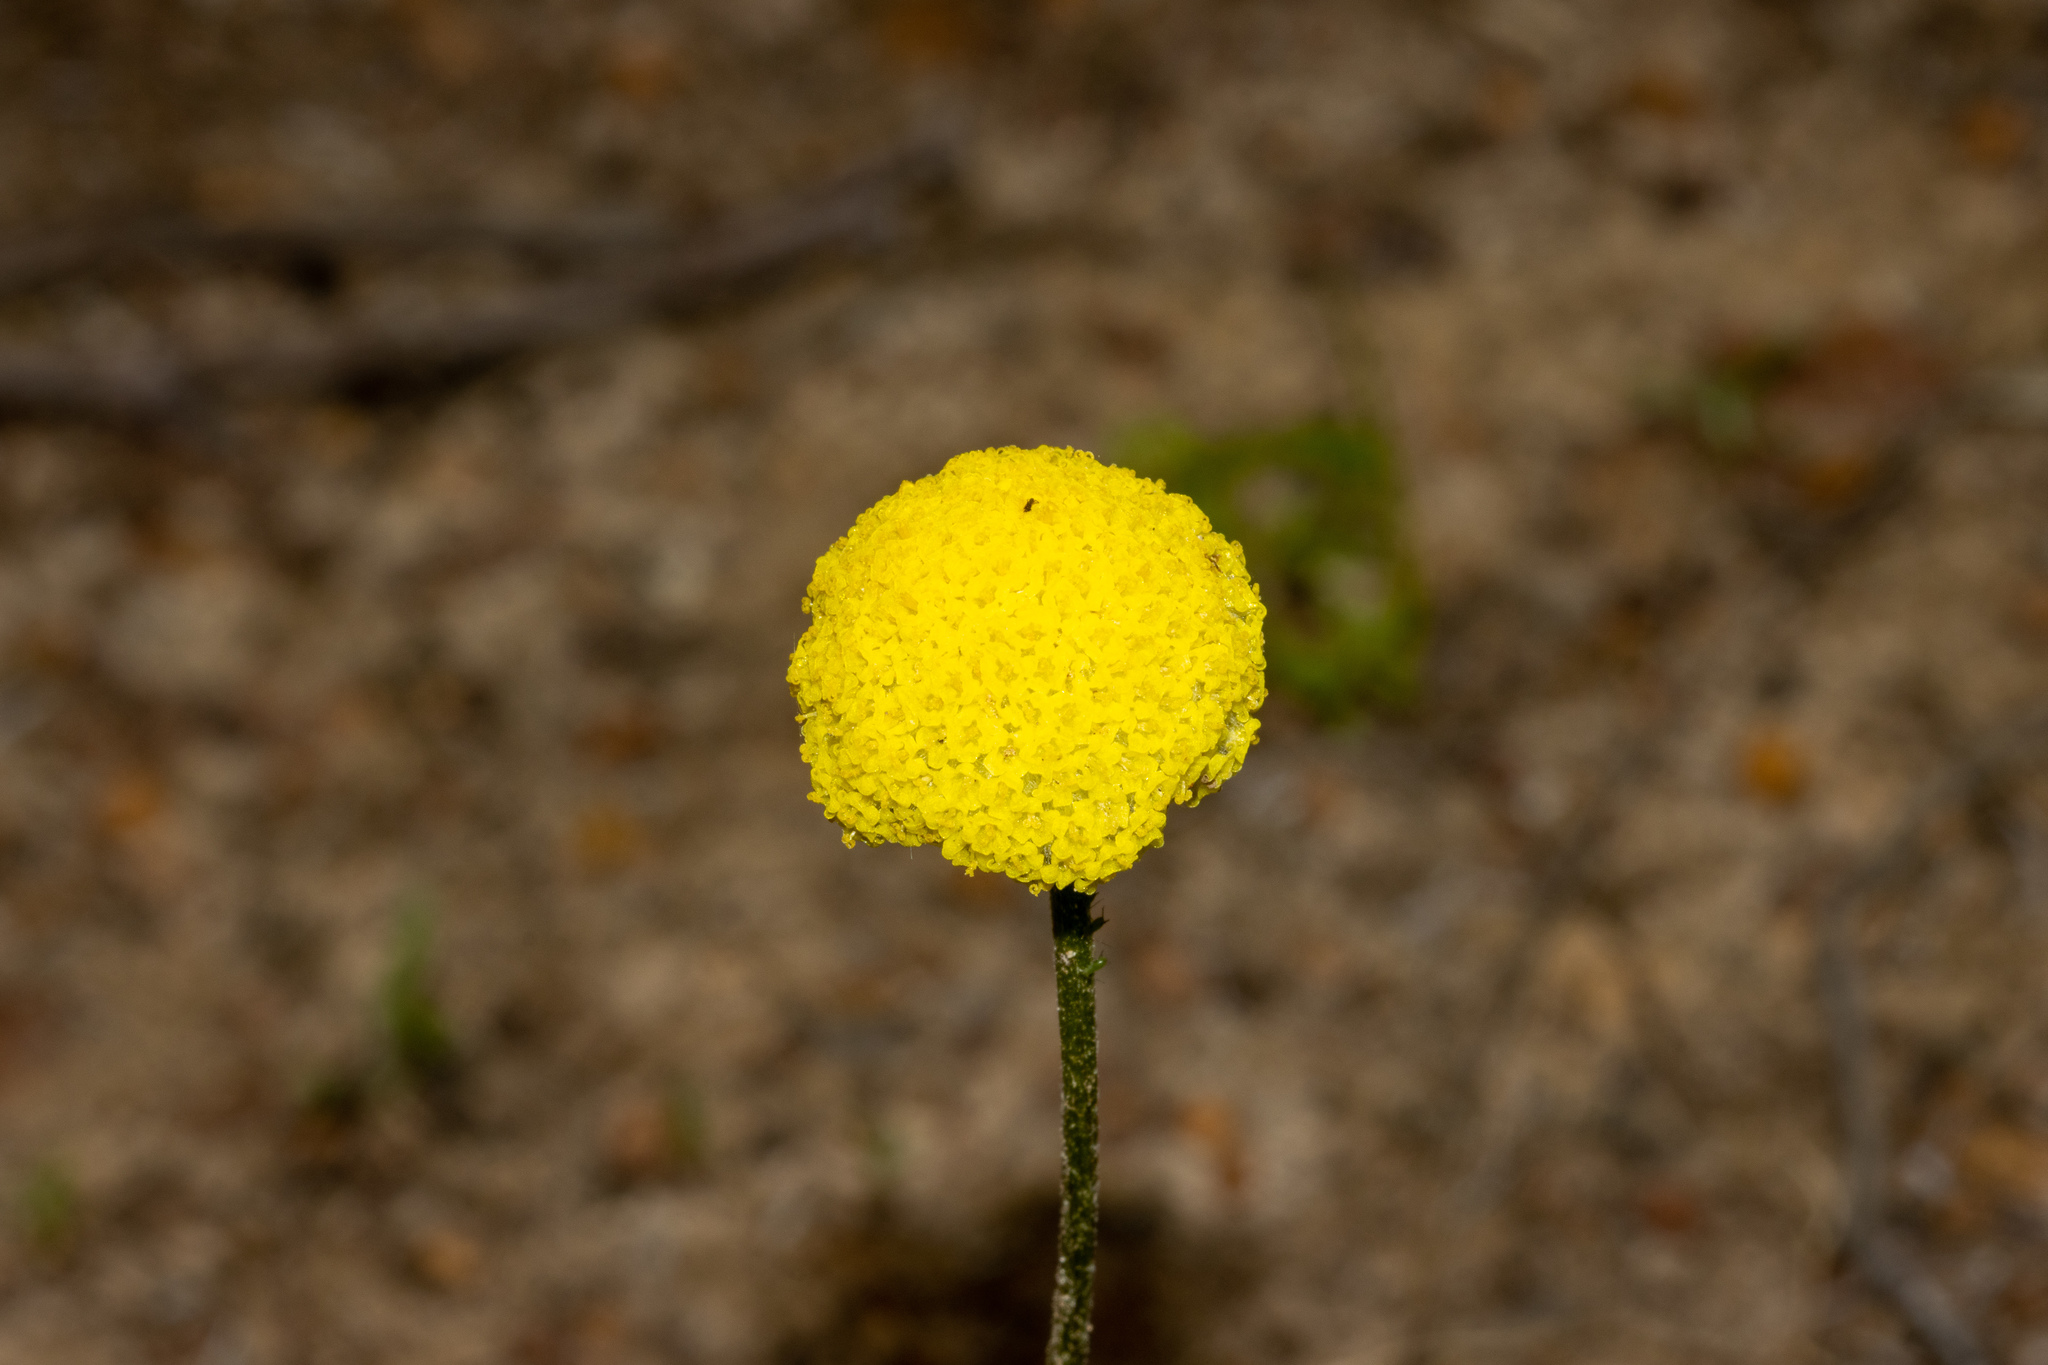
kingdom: Plantae
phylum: Tracheophyta
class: Magnoliopsida
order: Asterales
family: Asteraceae
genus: Craspedia
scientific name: Craspedia variabilis
